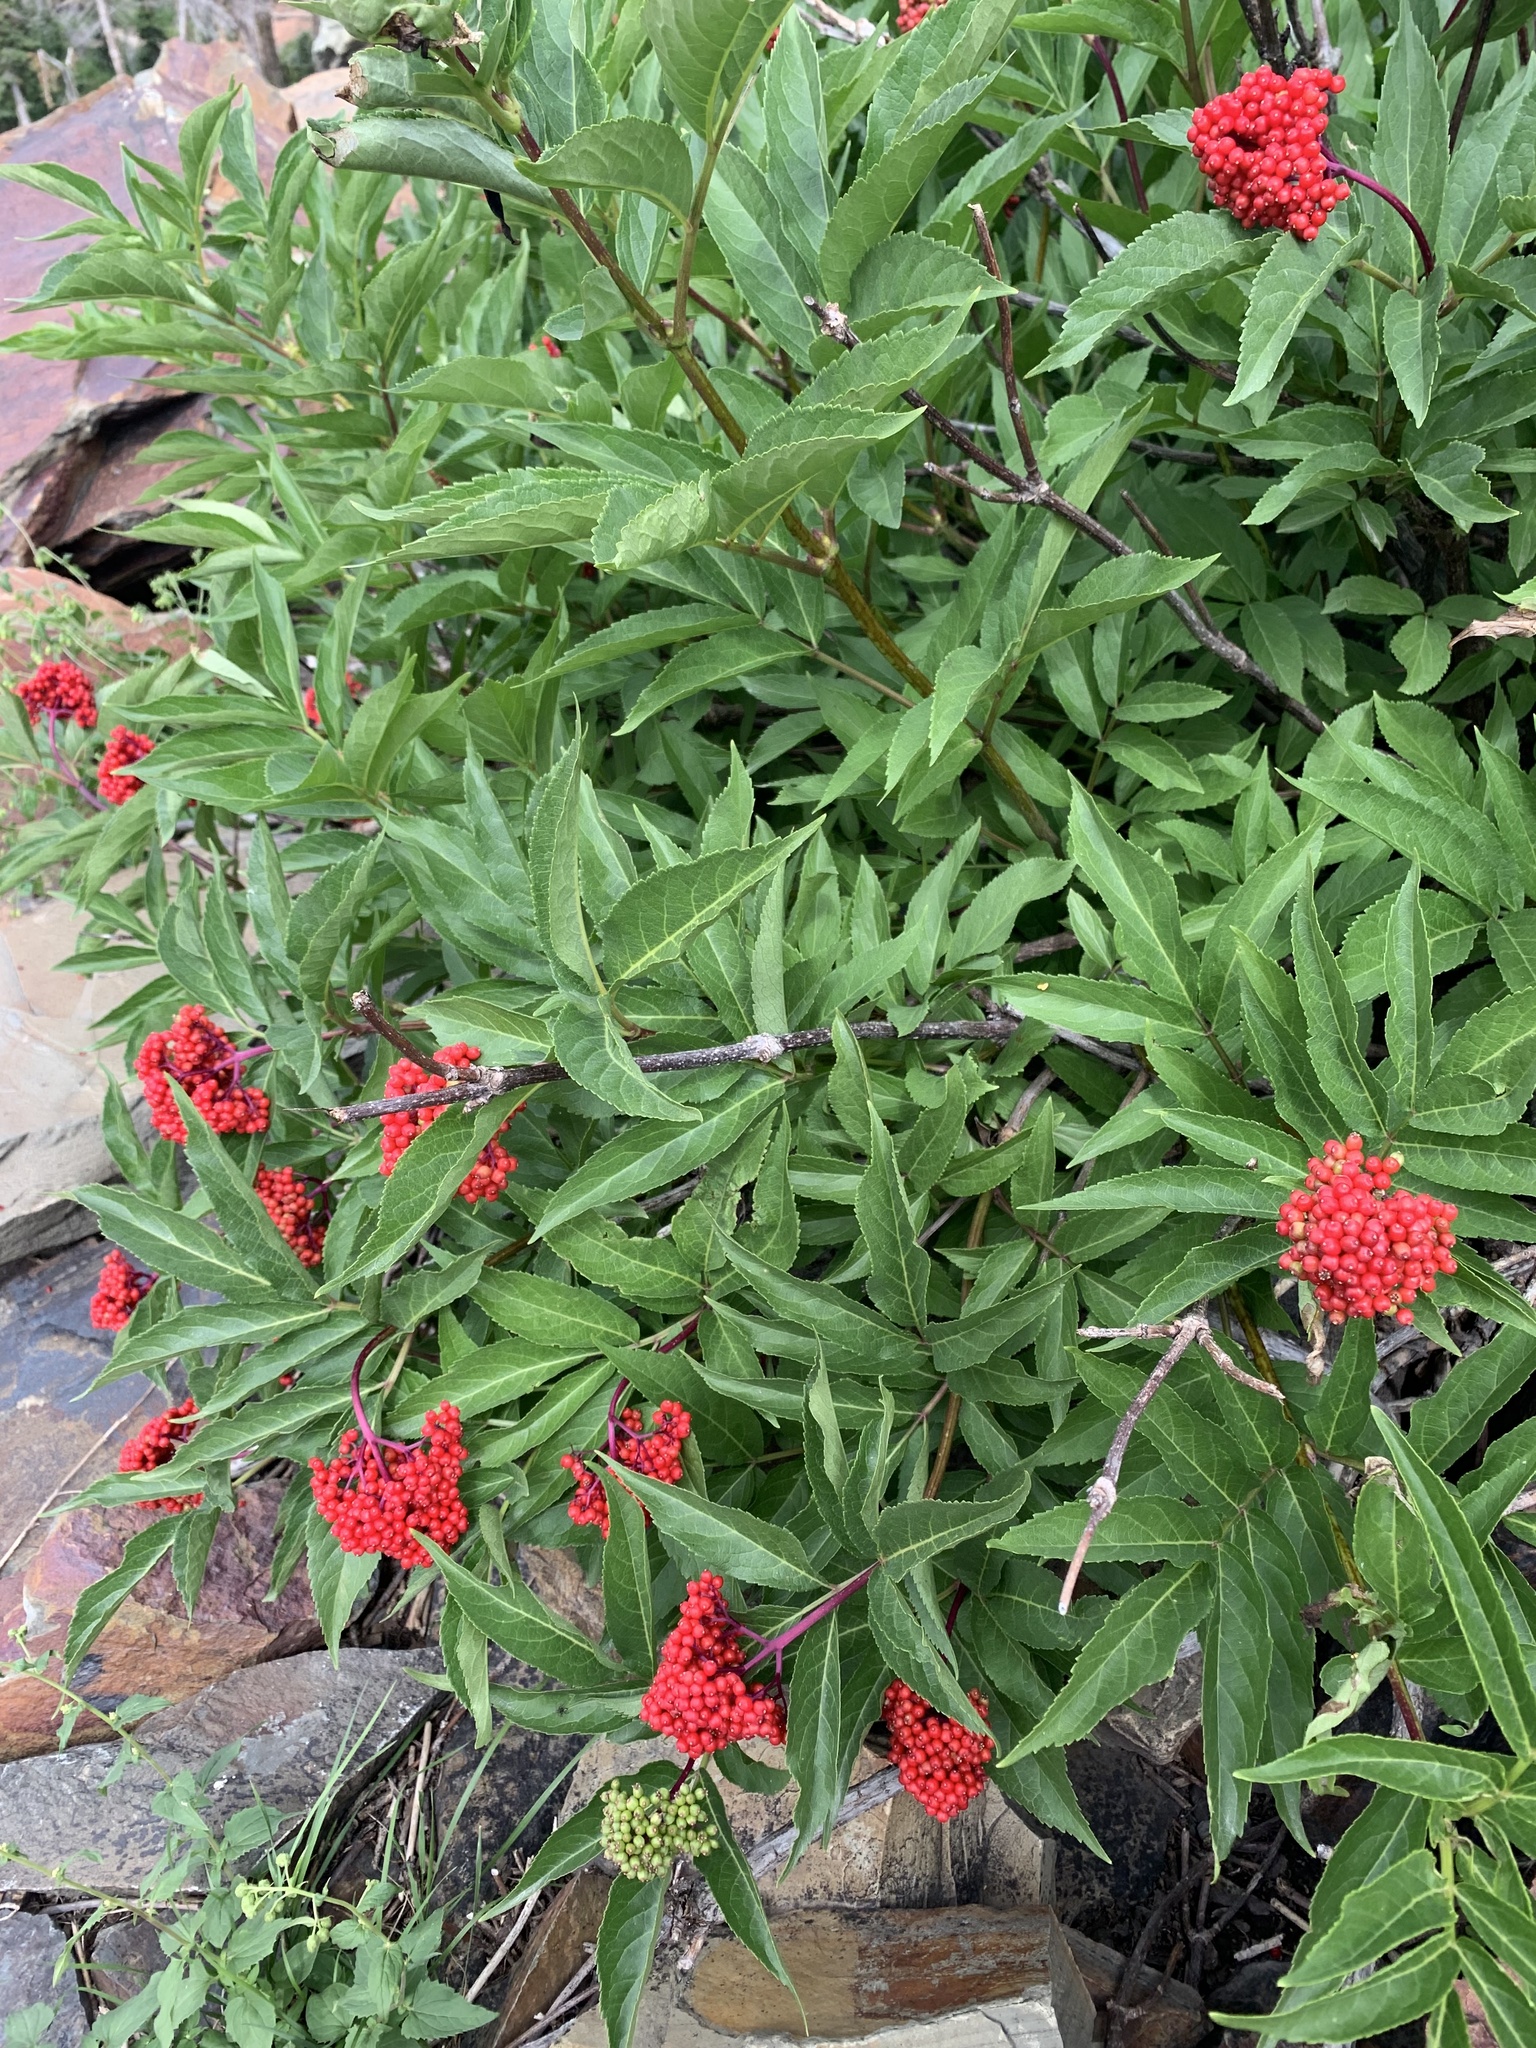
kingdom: Plantae
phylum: Tracheophyta
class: Magnoliopsida
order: Dipsacales
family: Viburnaceae
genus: Sambucus
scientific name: Sambucus racemosa
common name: Red-berried elder
